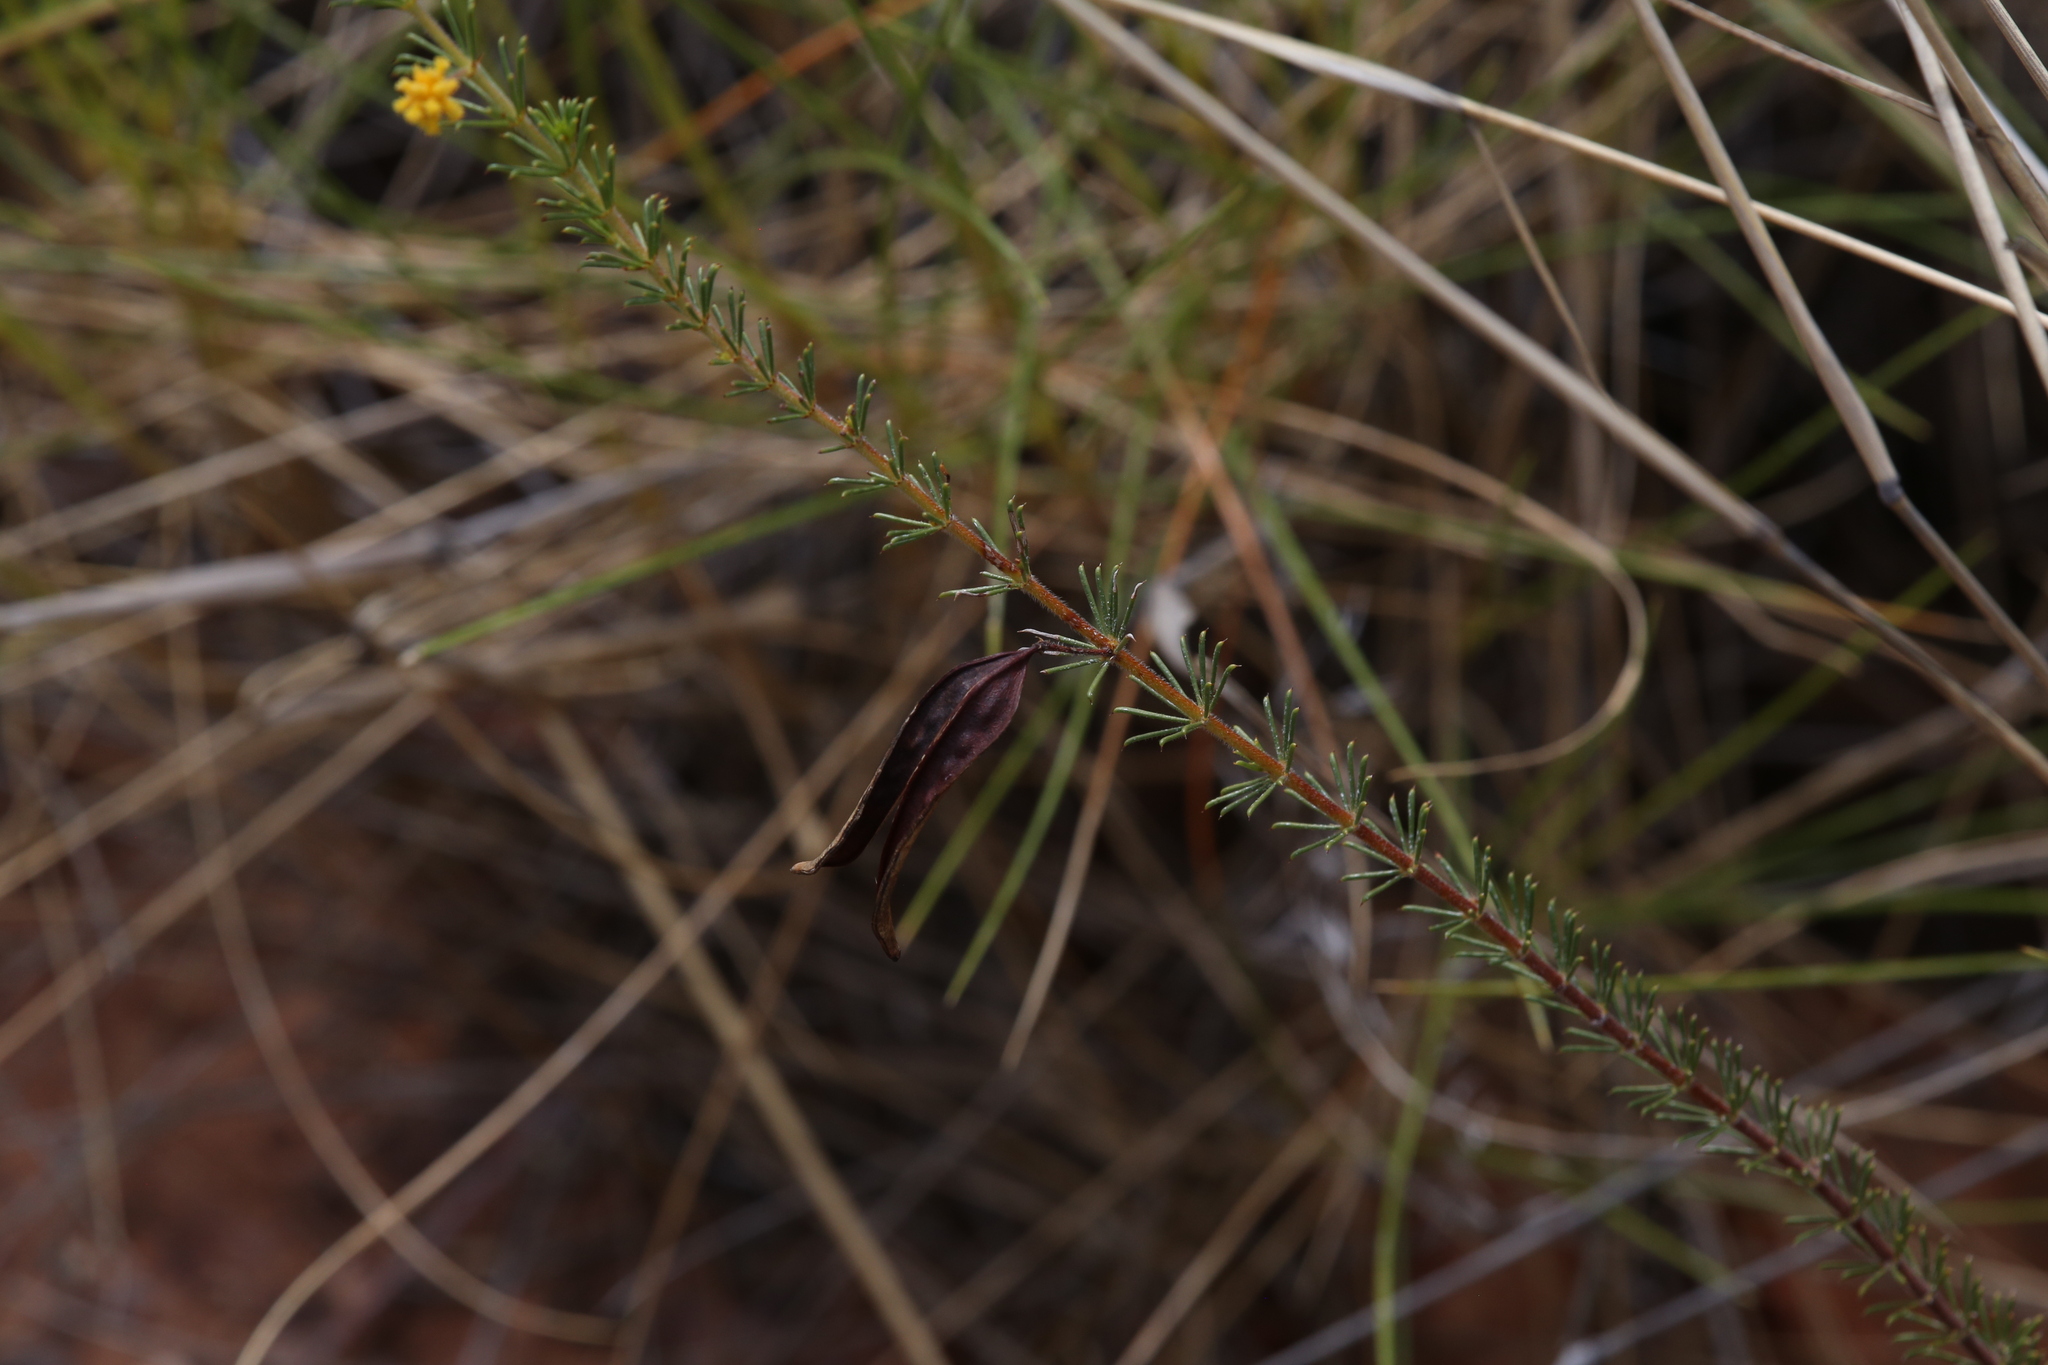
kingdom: Plantae
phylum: Tracheophyta
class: Magnoliopsida
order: Fabales
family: Fabaceae
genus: Acacia
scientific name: Acacia galioides
